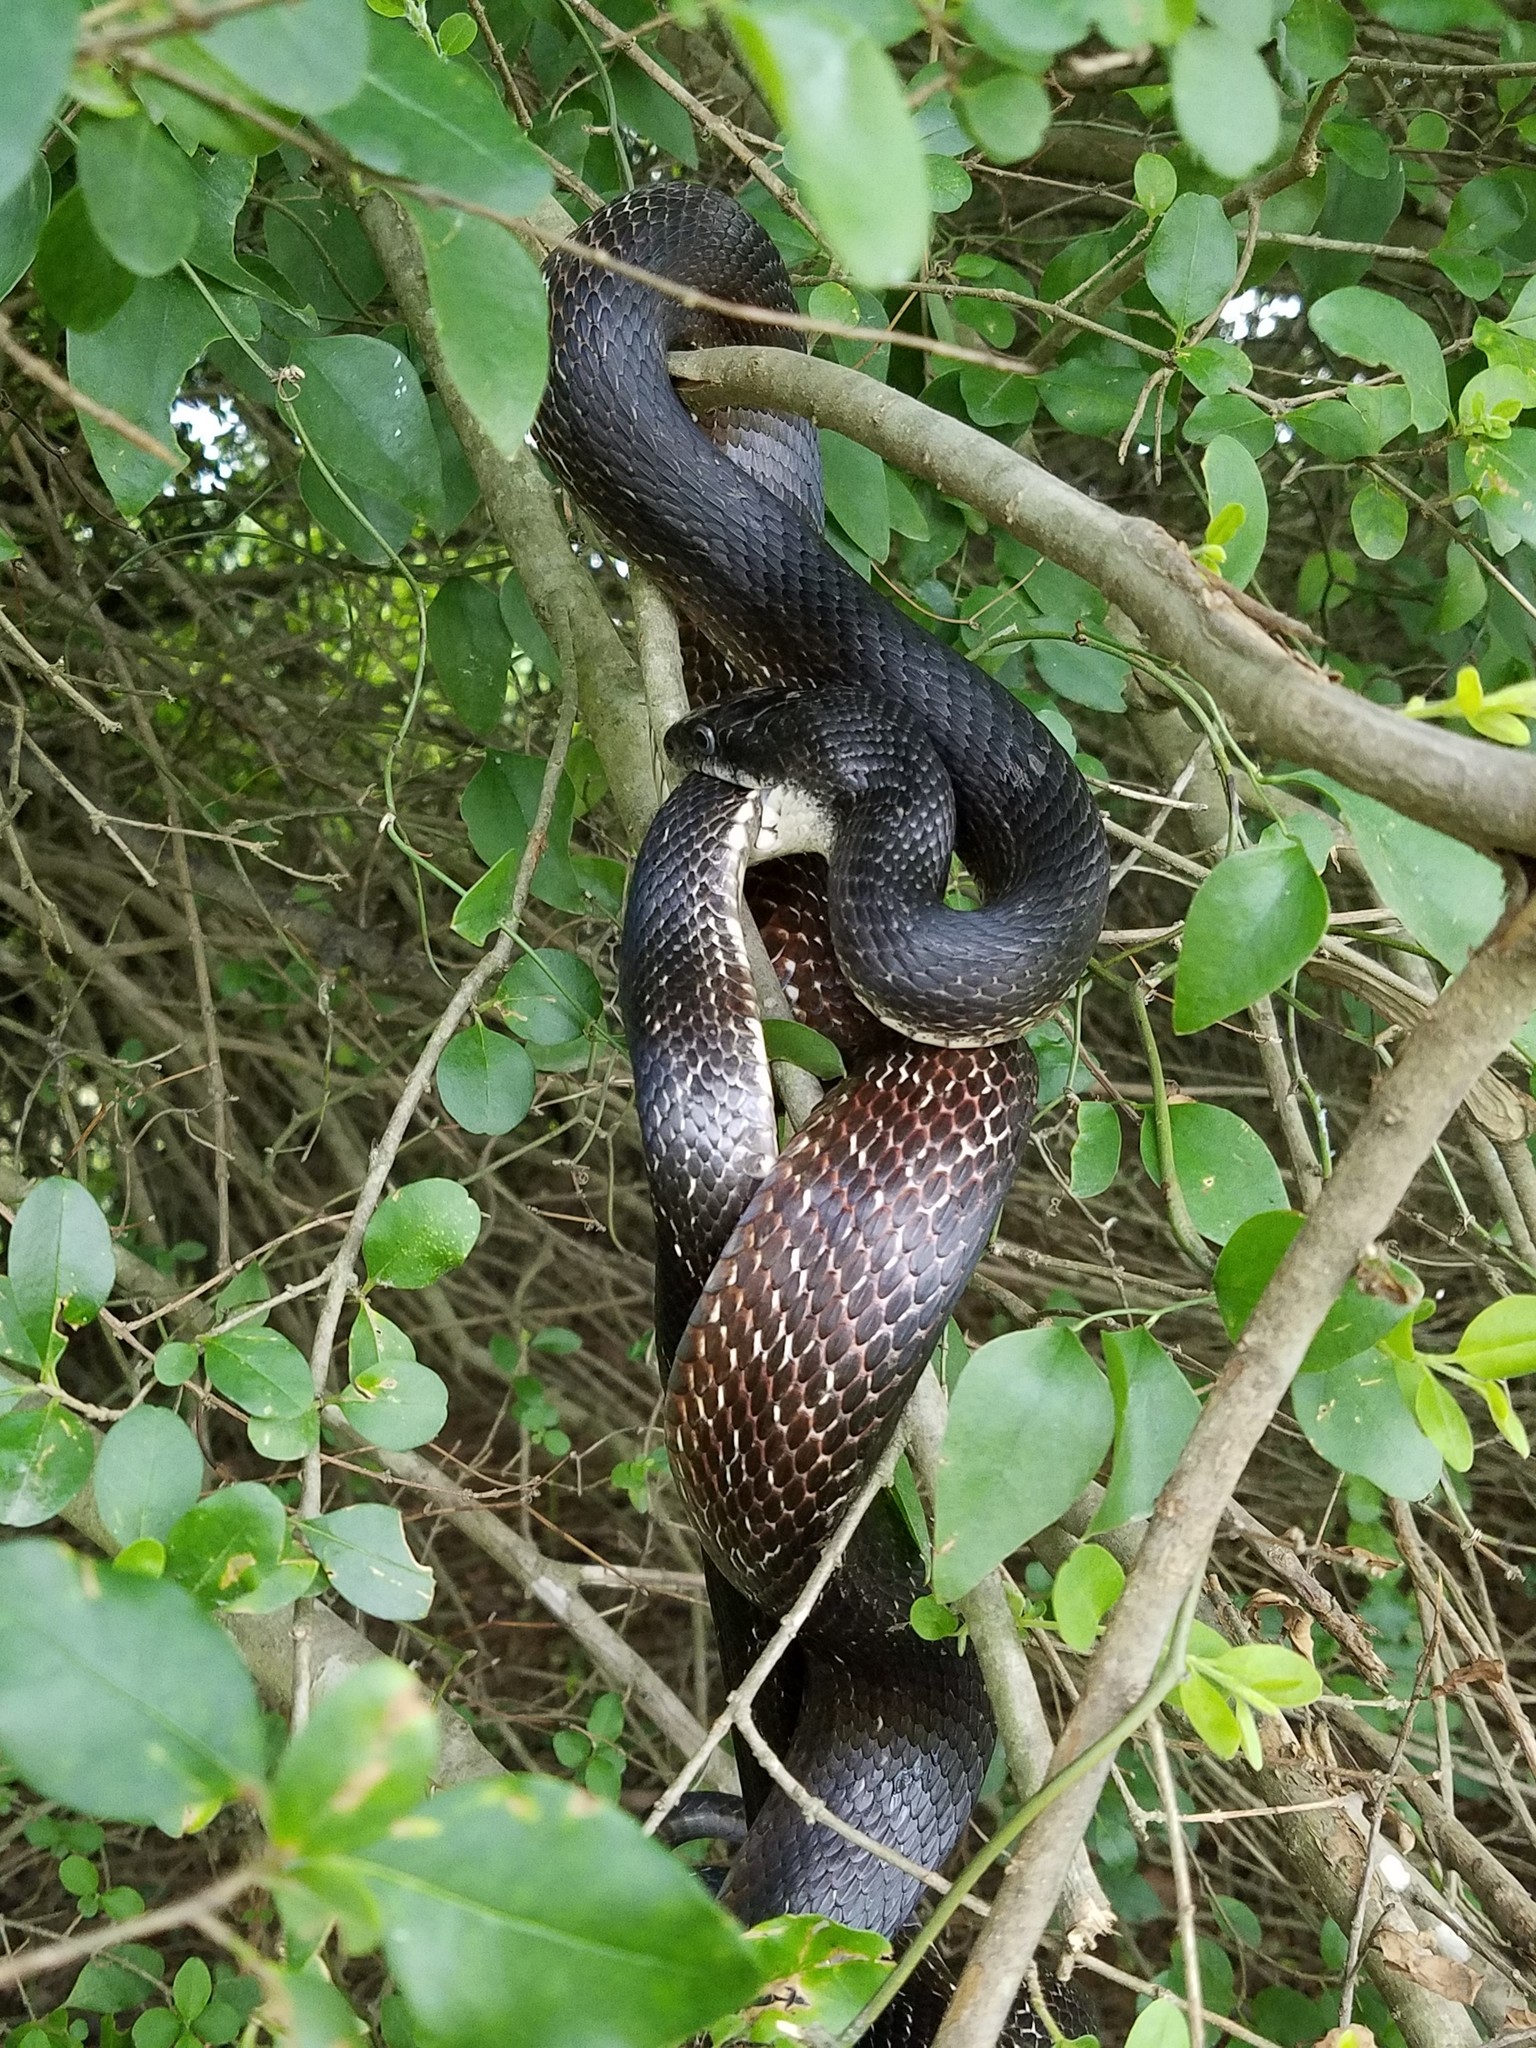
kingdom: Animalia
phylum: Chordata
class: Squamata
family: Colubridae
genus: Pantherophis
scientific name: Pantherophis alleghaniensis
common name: Eastern rat snake
